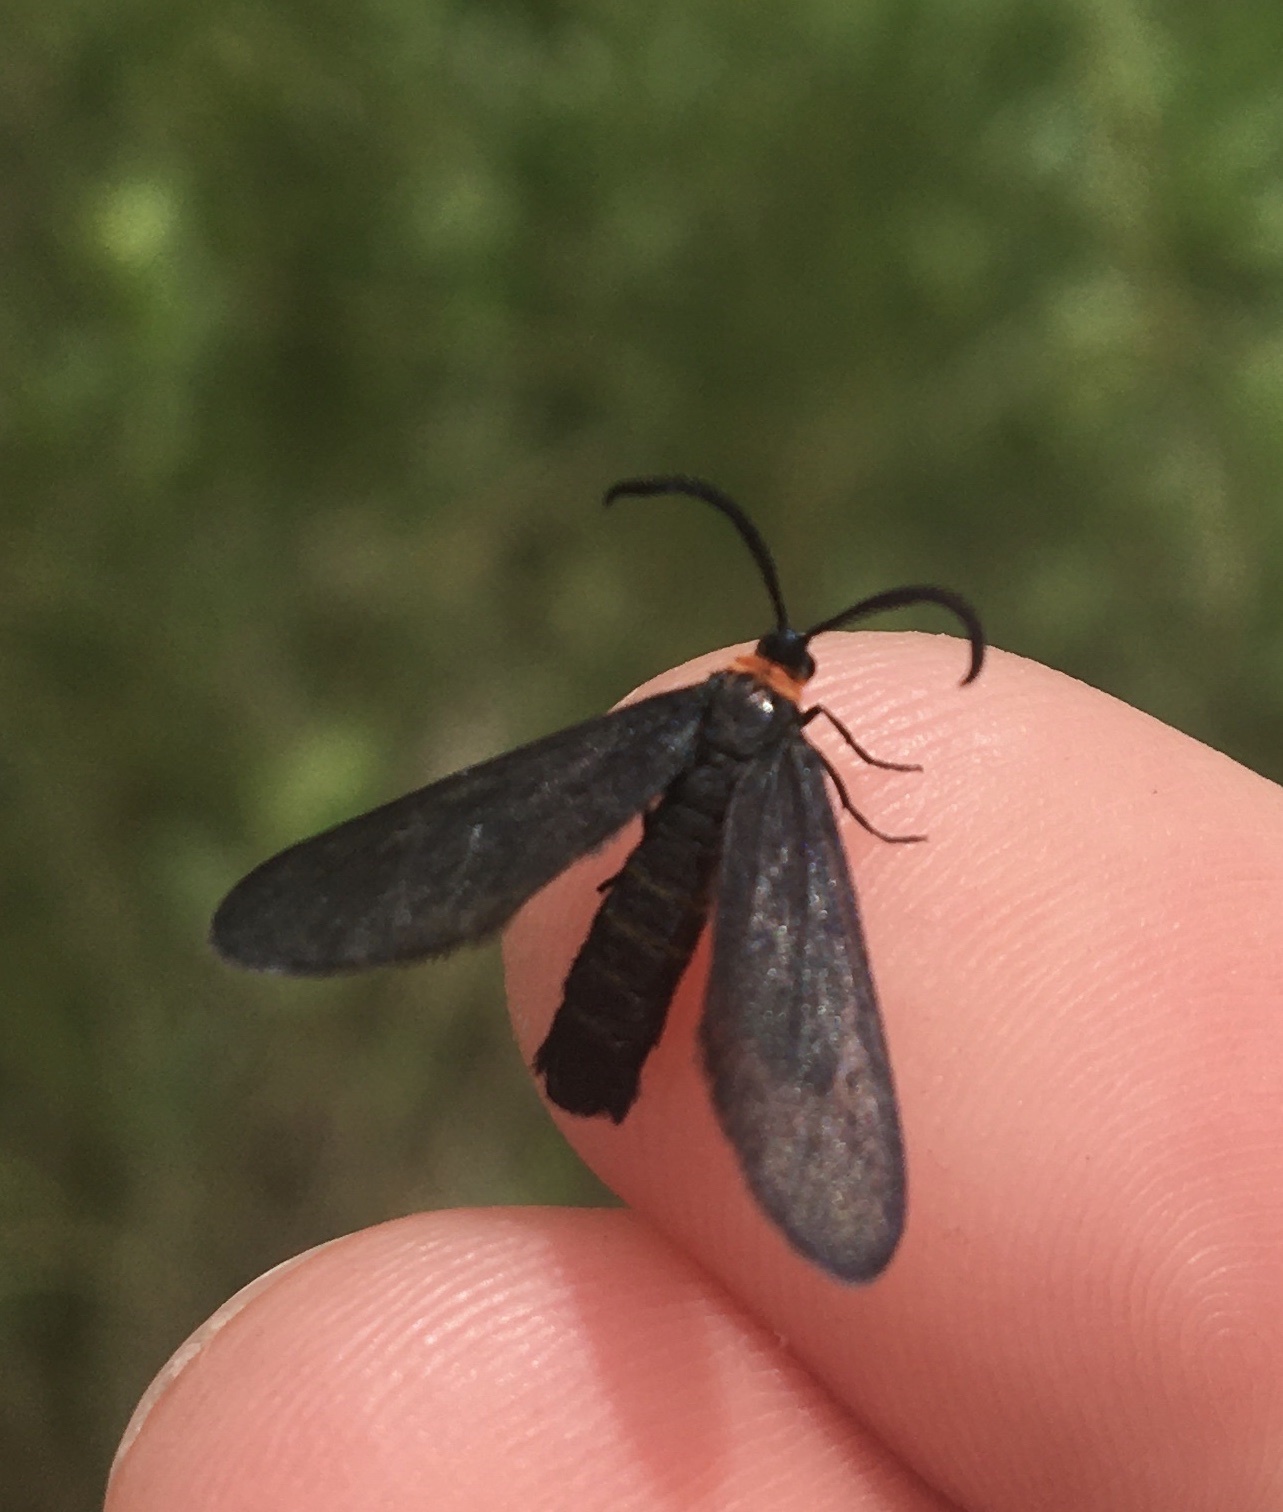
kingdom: Animalia
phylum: Arthropoda
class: Insecta
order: Lepidoptera
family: Zygaenidae
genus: Harrisina
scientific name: Harrisina americana
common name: Grapeleaf skeletonizer moth
